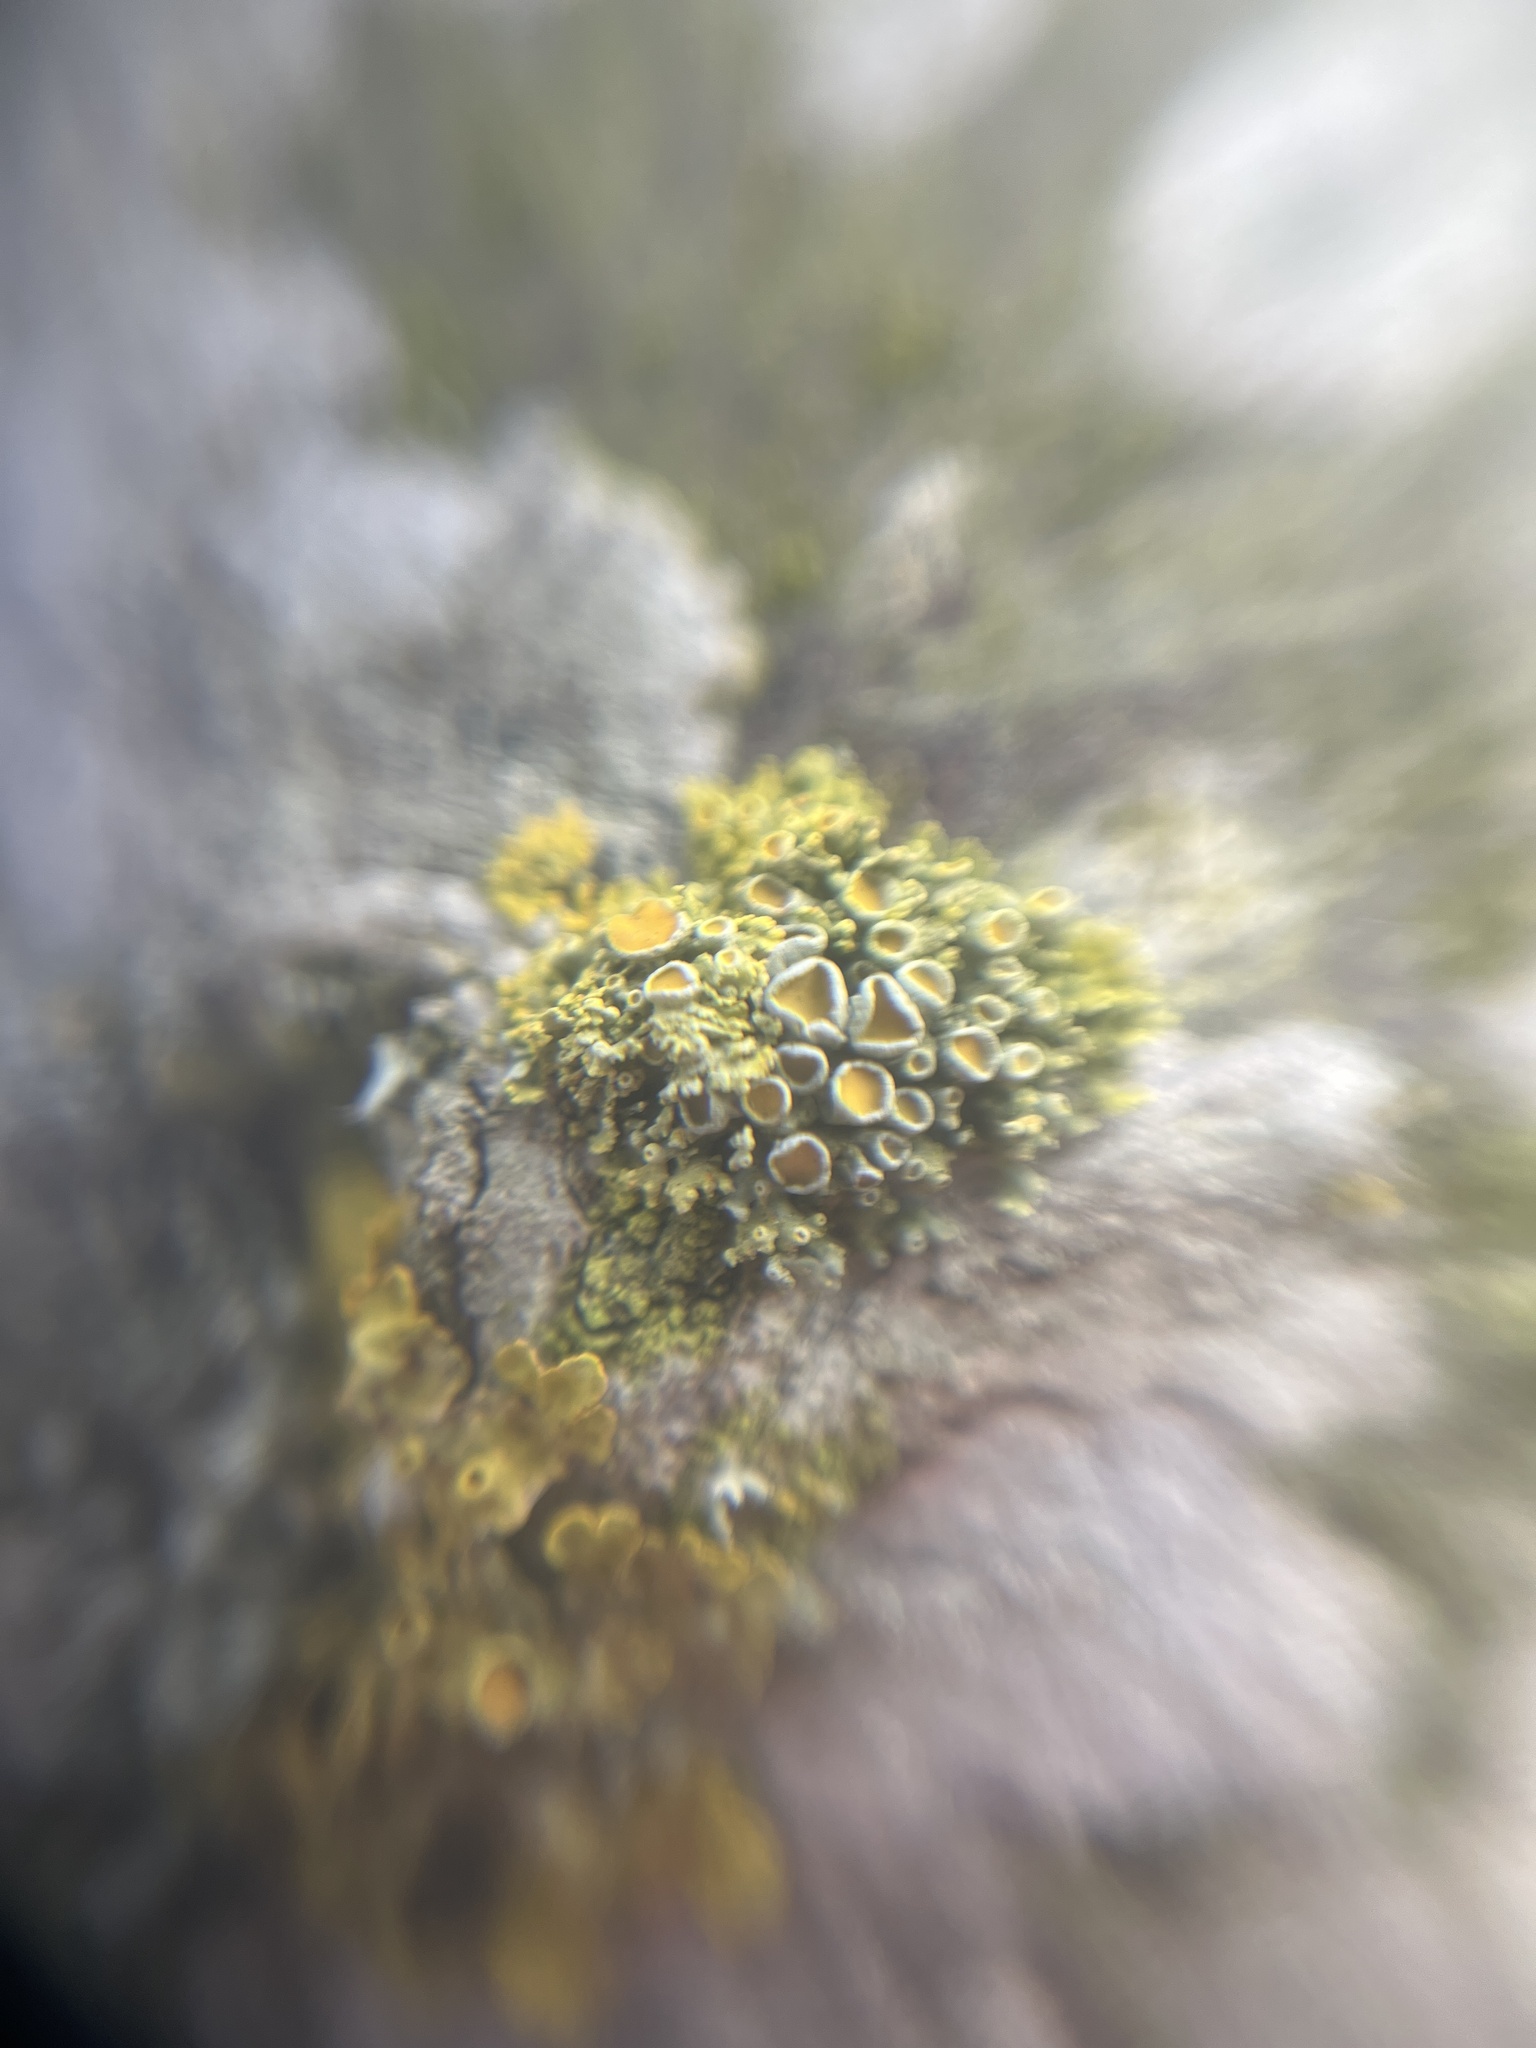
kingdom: Fungi
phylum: Ascomycota
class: Lecanoromycetes
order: Teloschistales
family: Teloschistaceae
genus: Polycauliona
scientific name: Polycauliona polycarpa
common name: Pin-cushion sunburst lichen
